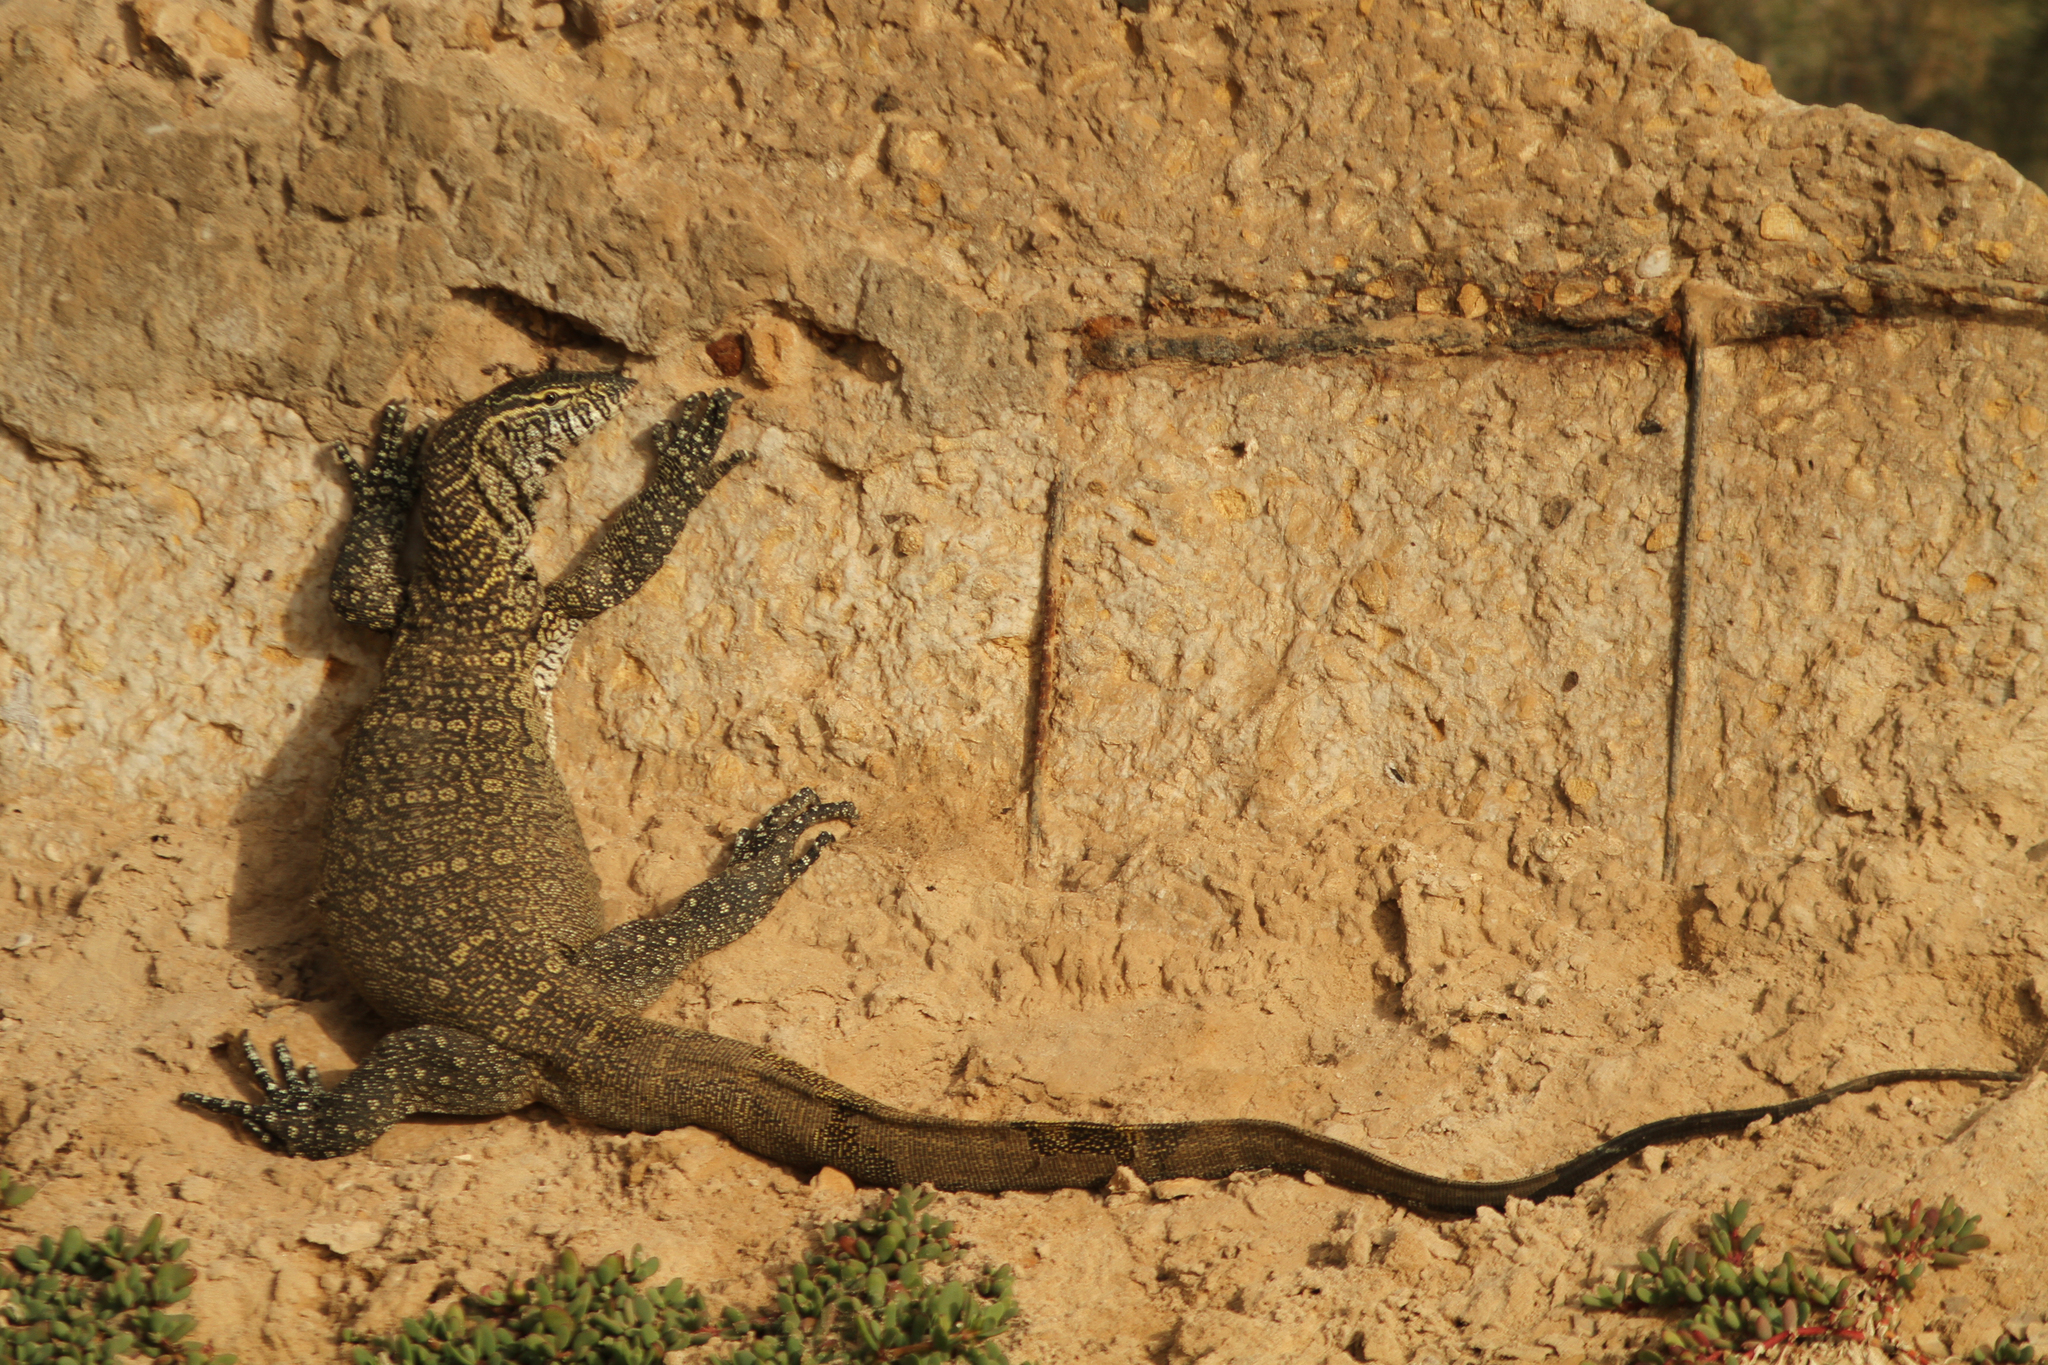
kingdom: Animalia
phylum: Chordata
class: Squamata
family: Varanidae
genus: Varanus
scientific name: Varanus niloticus
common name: Nile monitor
